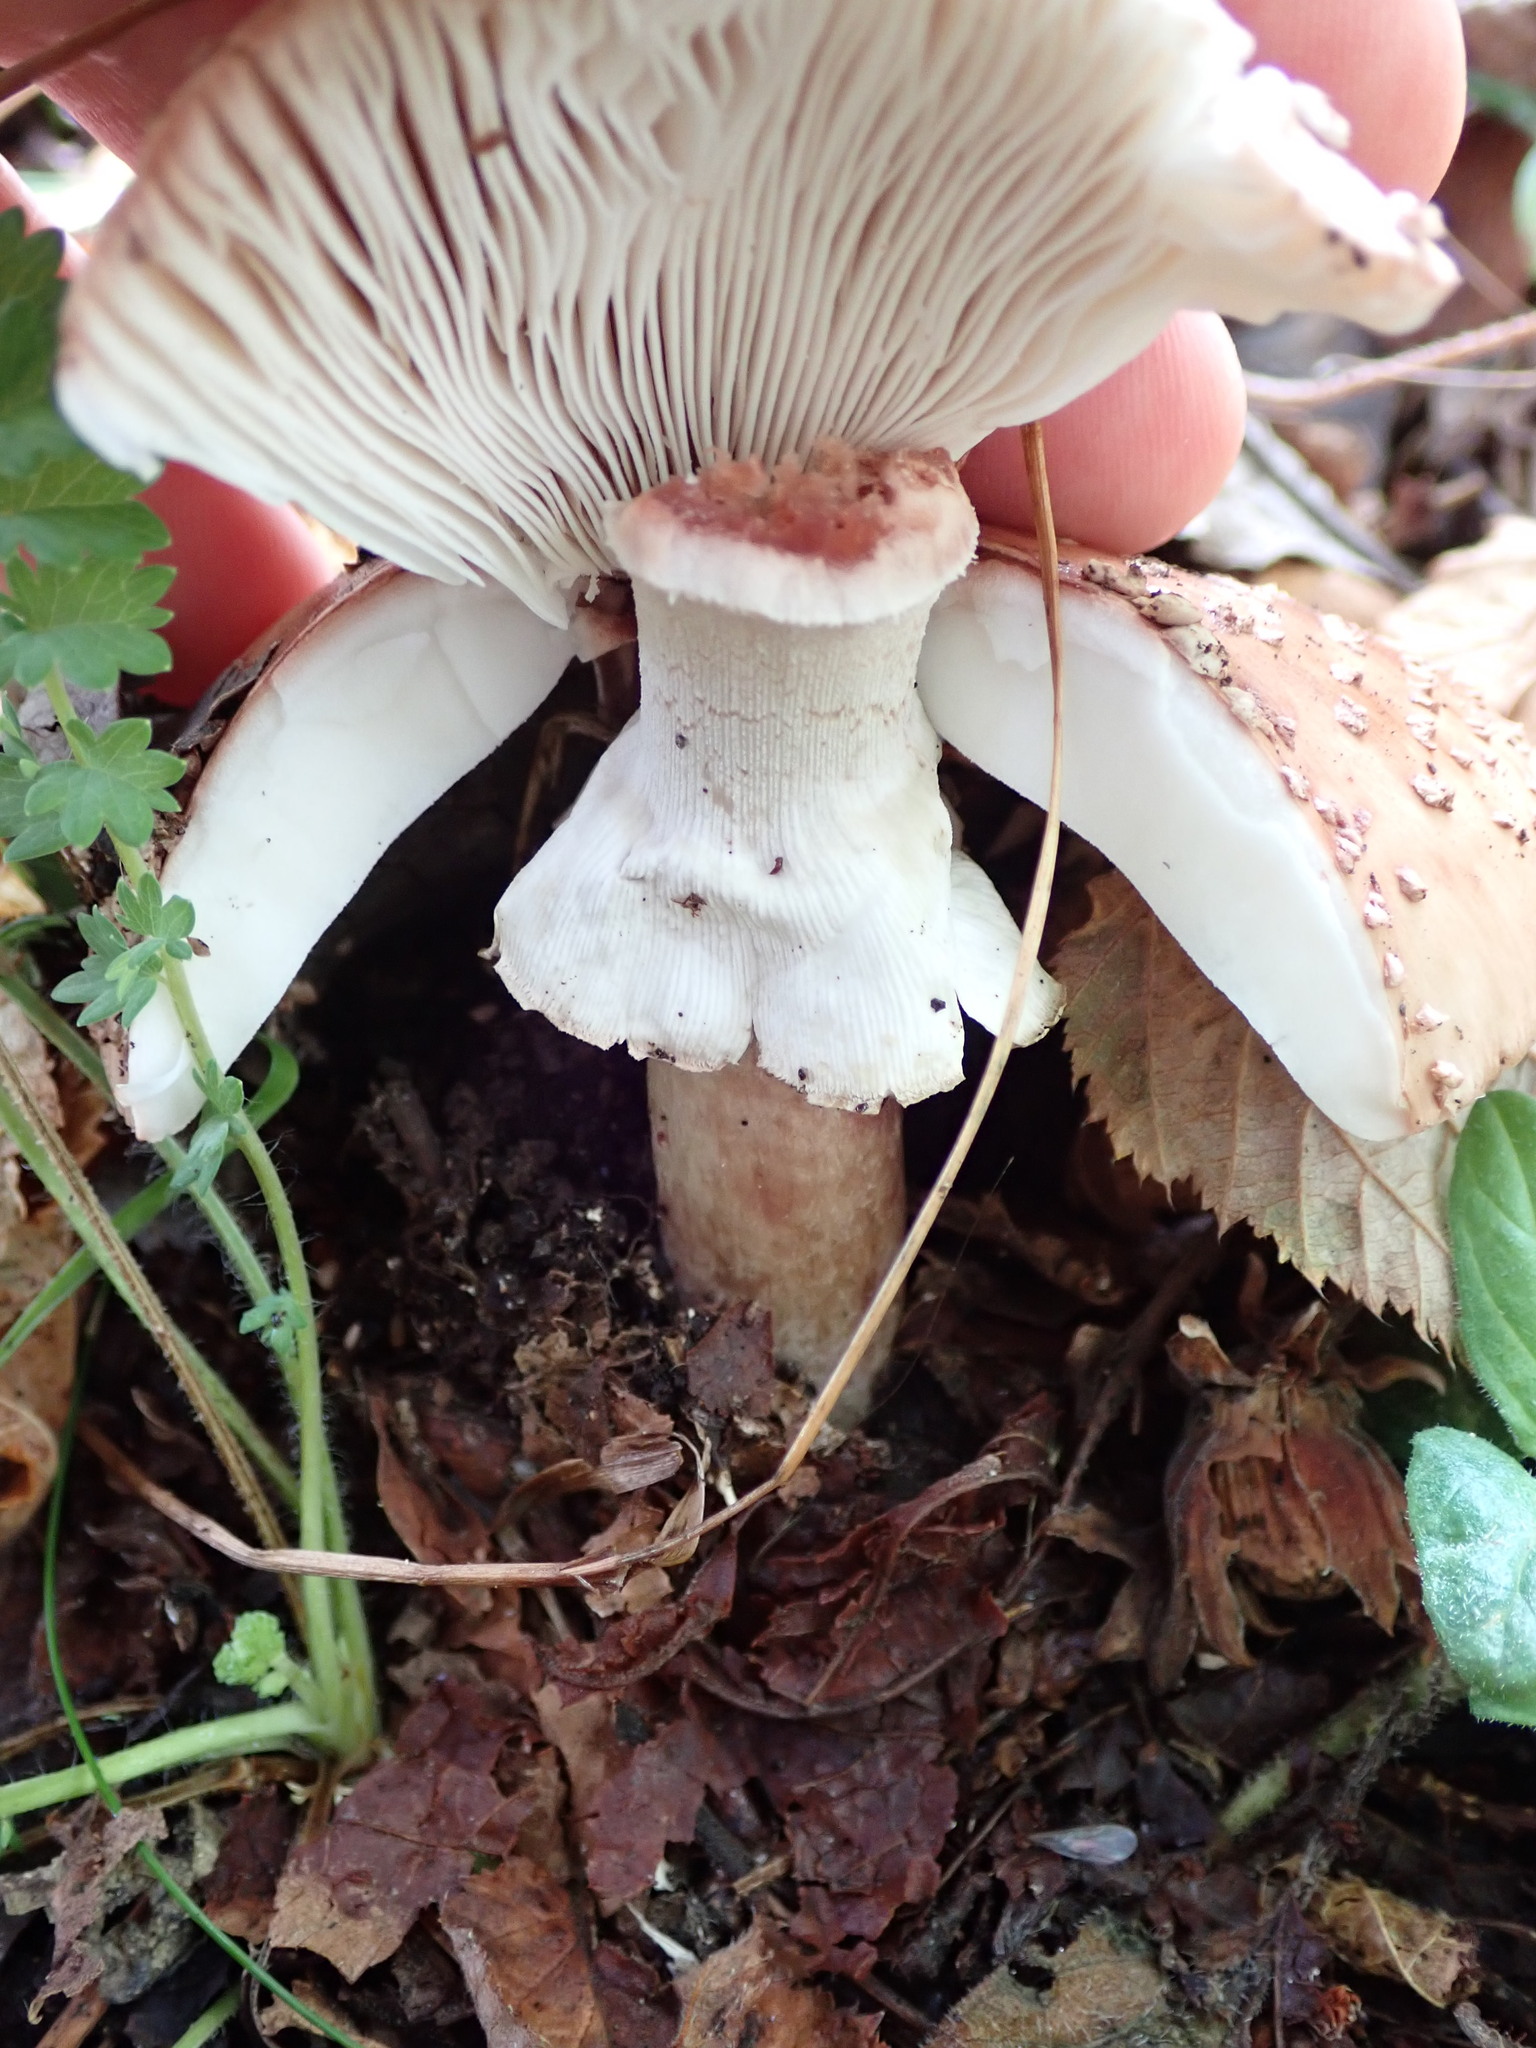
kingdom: Fungi
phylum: Basidiomycota
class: Agaricomycetes
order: Agaricales
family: Amanitaceae
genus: Amanita
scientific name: Amanita rubescens
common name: Blusher
